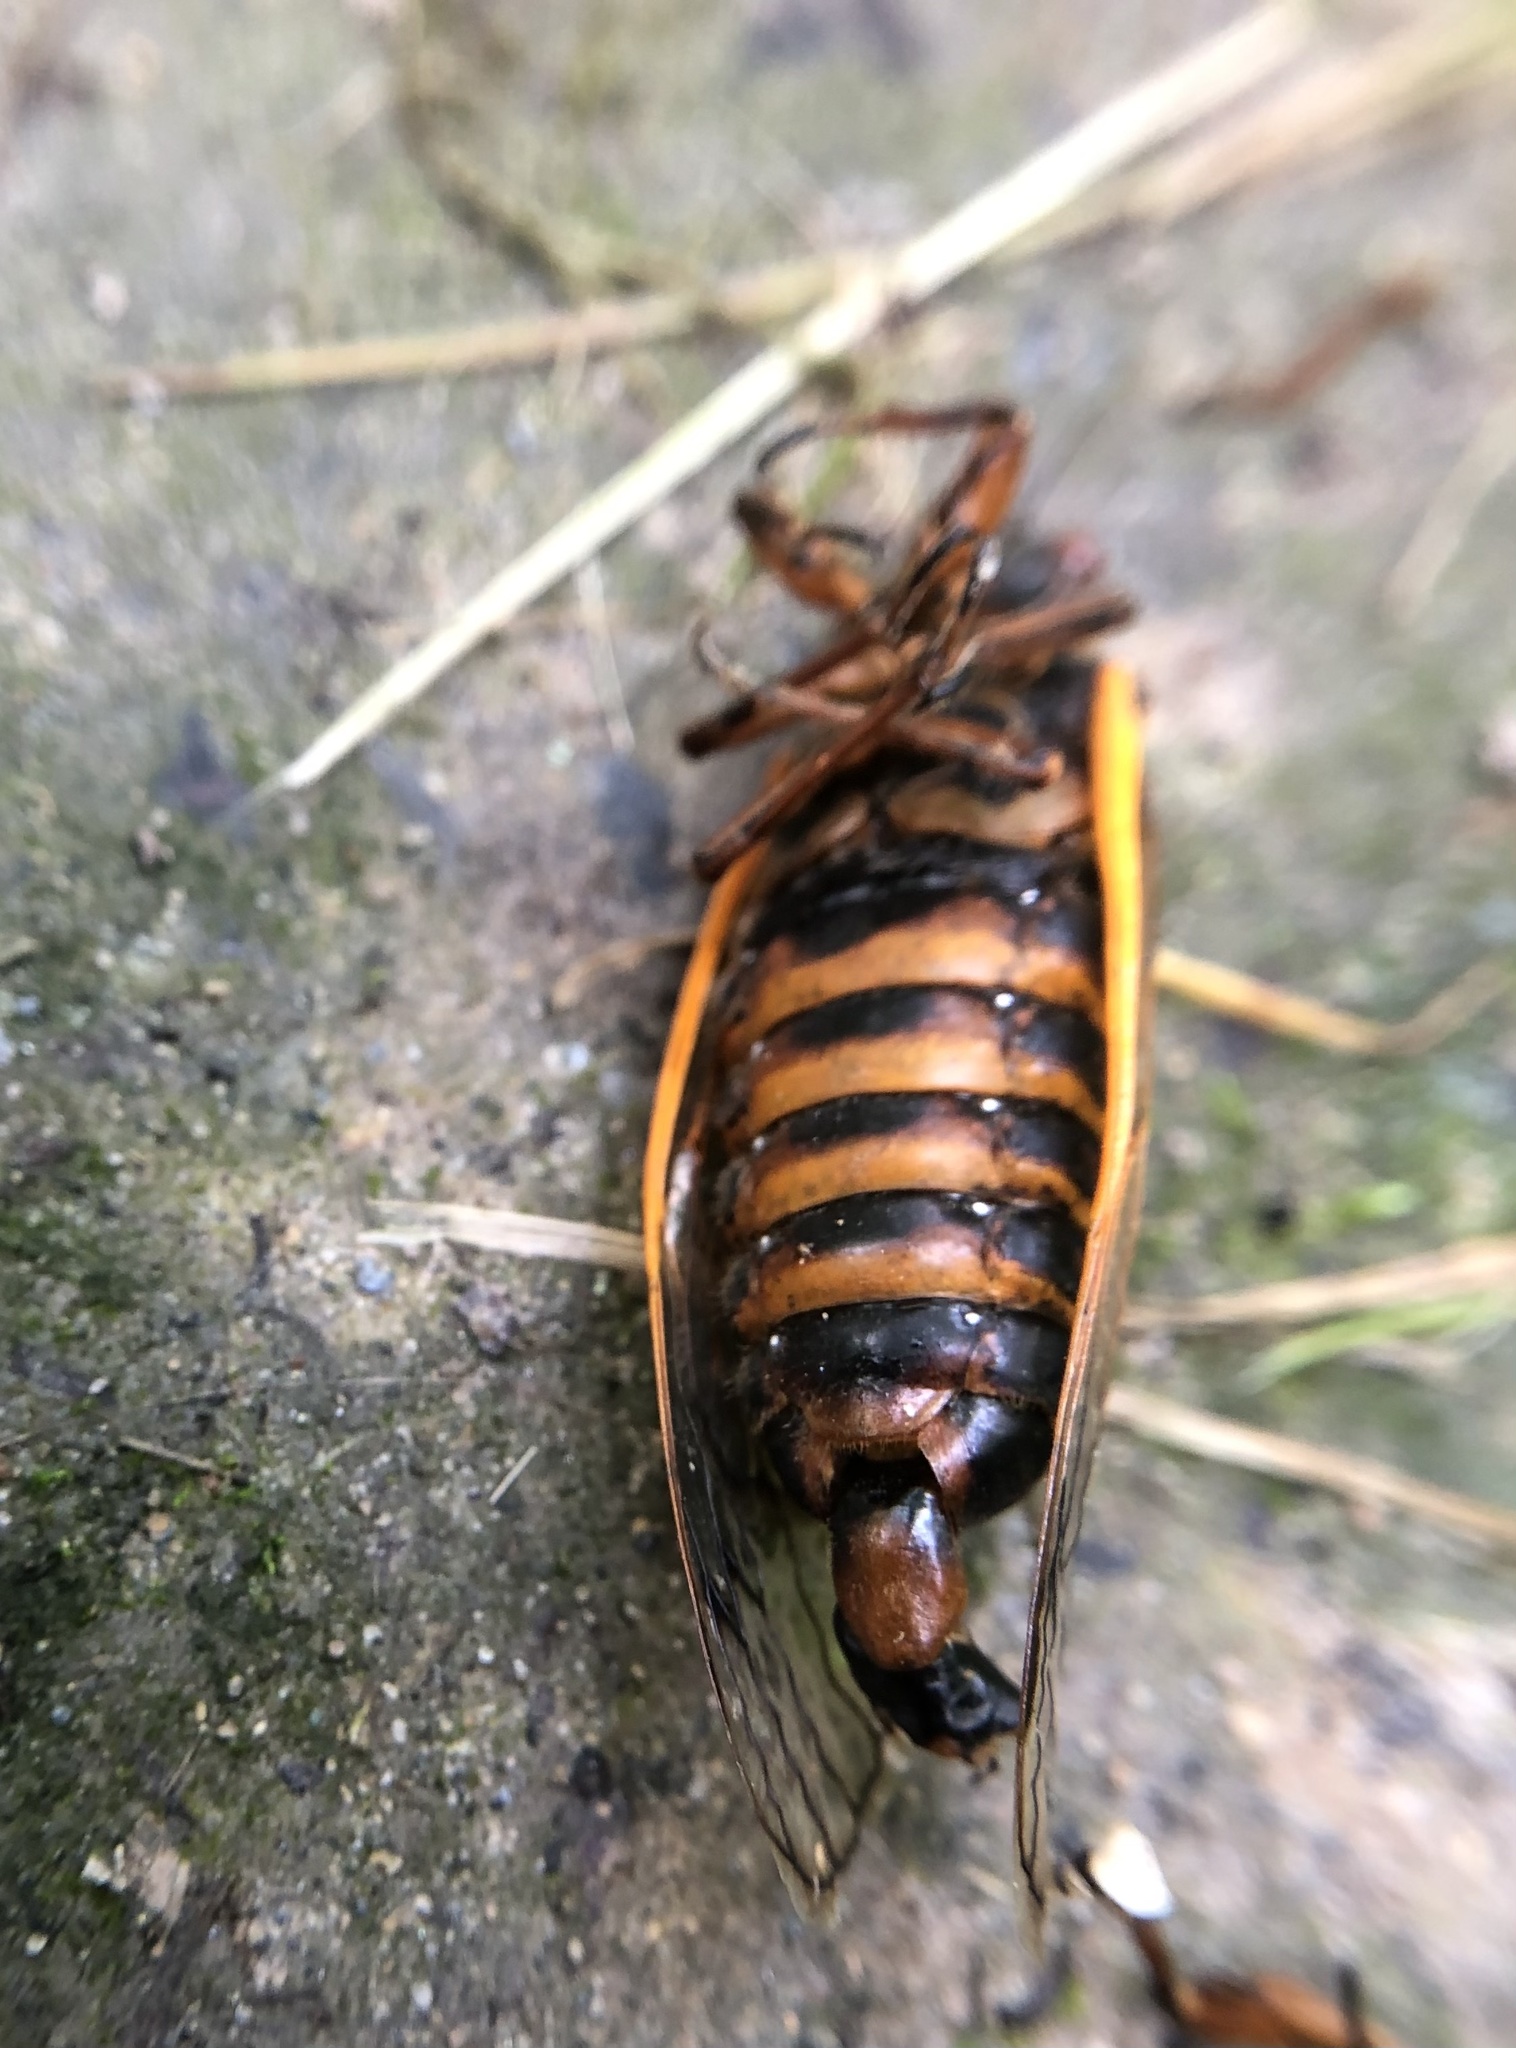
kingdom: Animalia
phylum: Arthropoda
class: Insecta
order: Hemiptera
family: Cicadidae
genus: Magicicada
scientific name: Magicicada septendecim
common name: Periodical cicada
